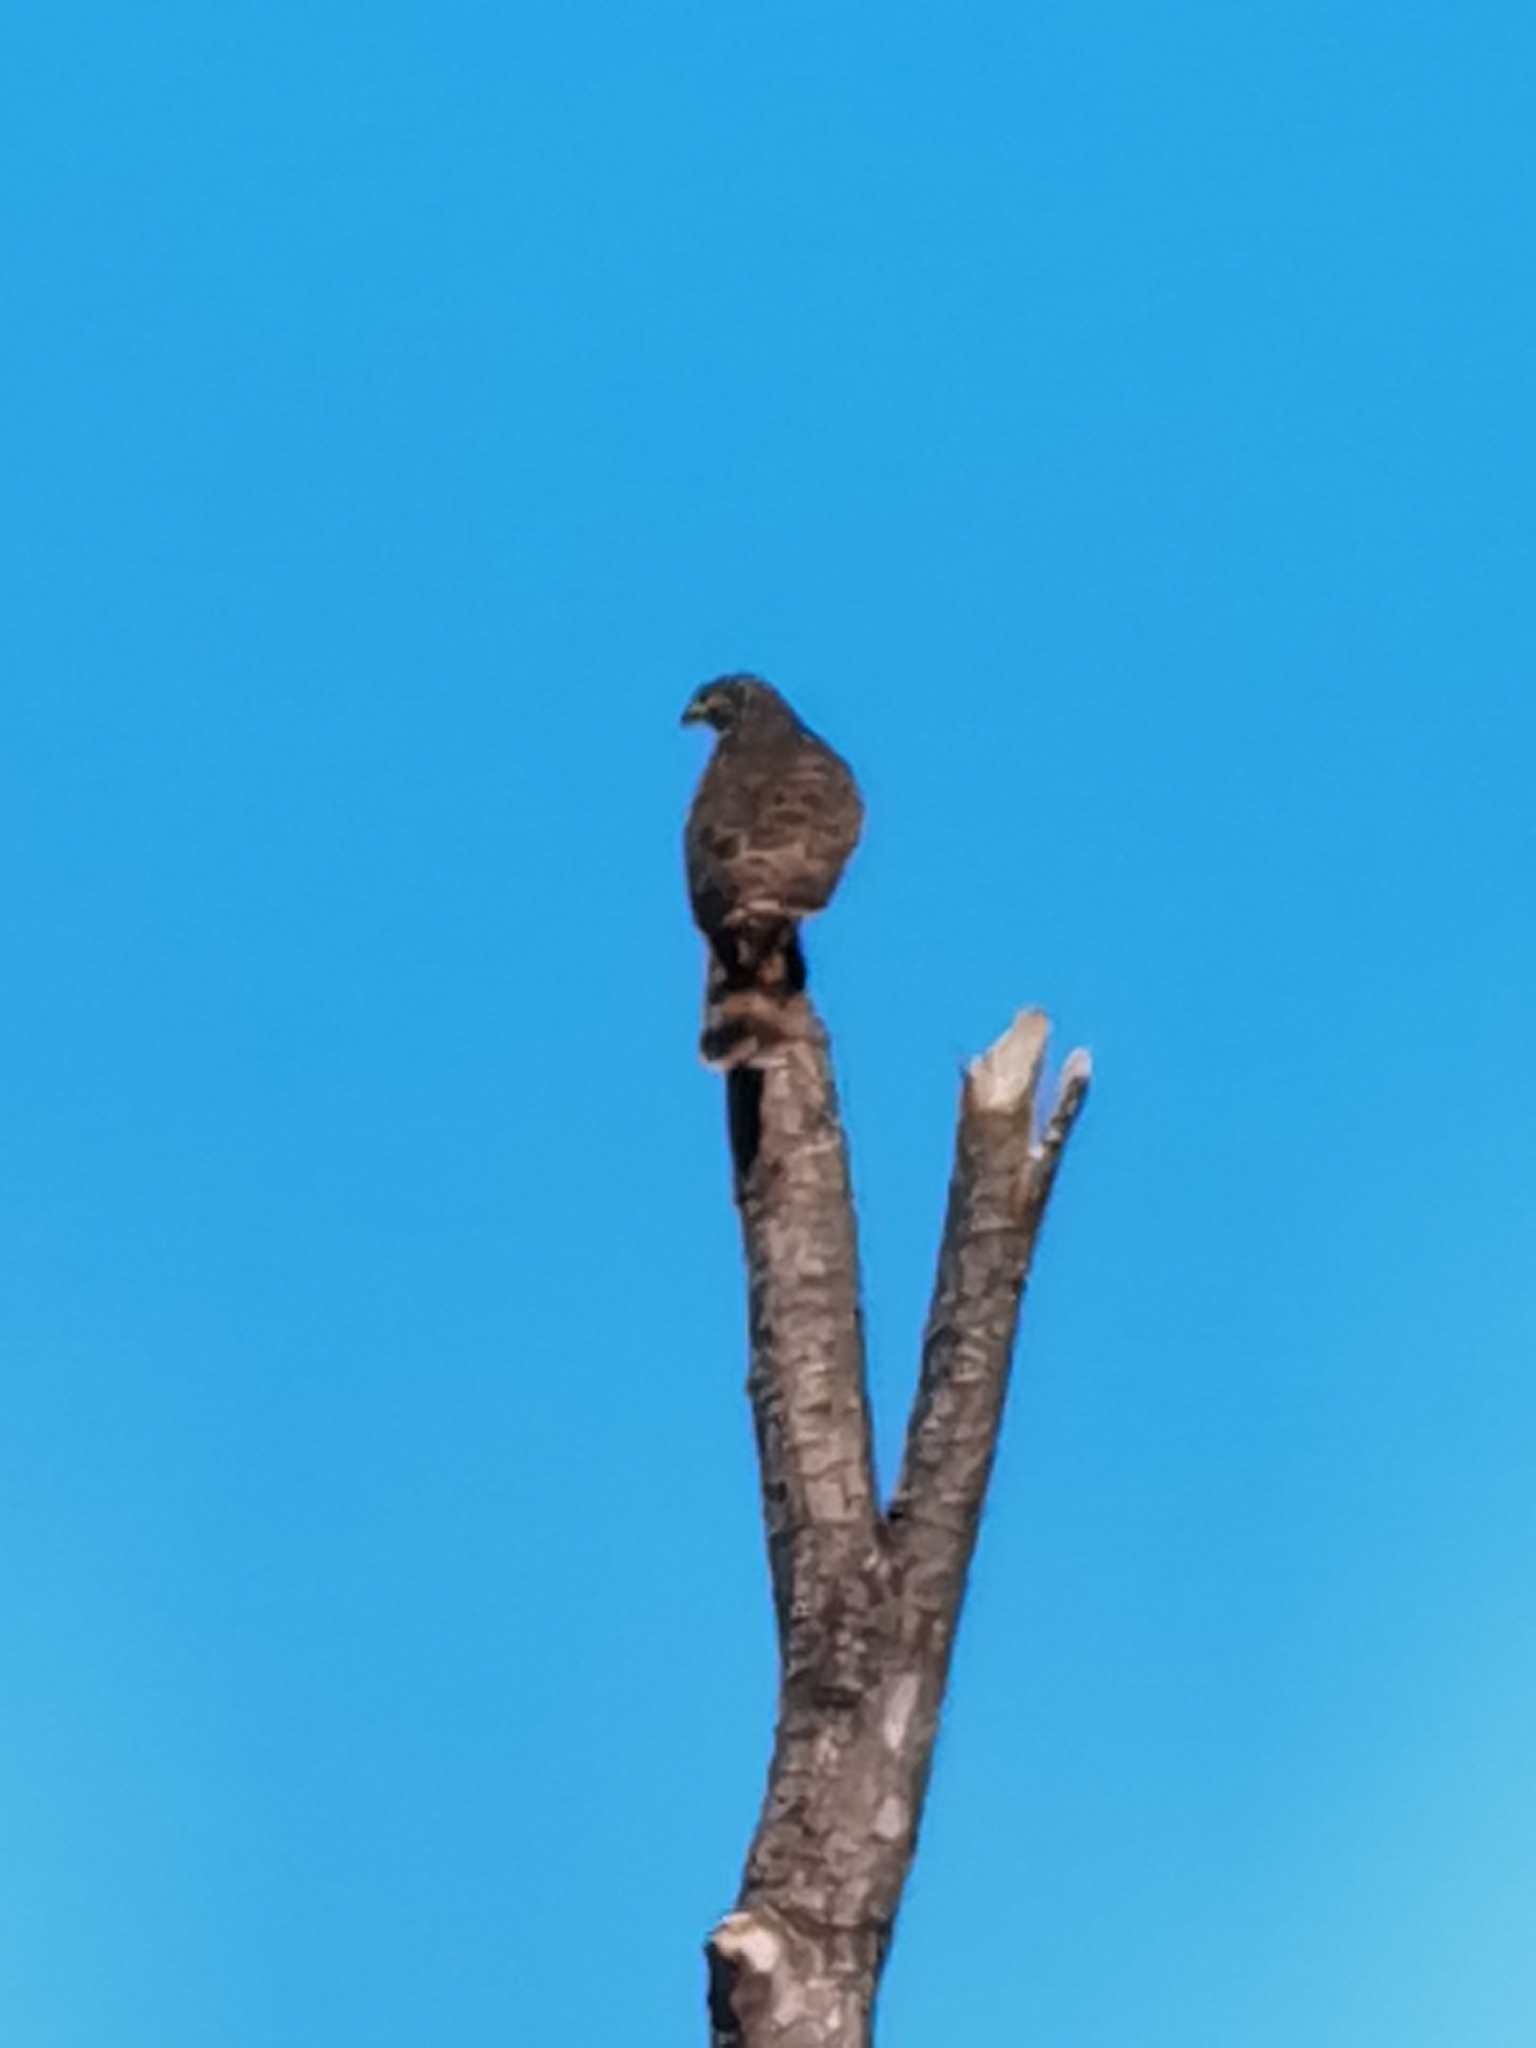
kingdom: Animalia
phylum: Chordata
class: Aves
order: Accipitriformes
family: Accipitridae
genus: Rupornis
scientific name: Rupornis magnirostris
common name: Roadside hawk
